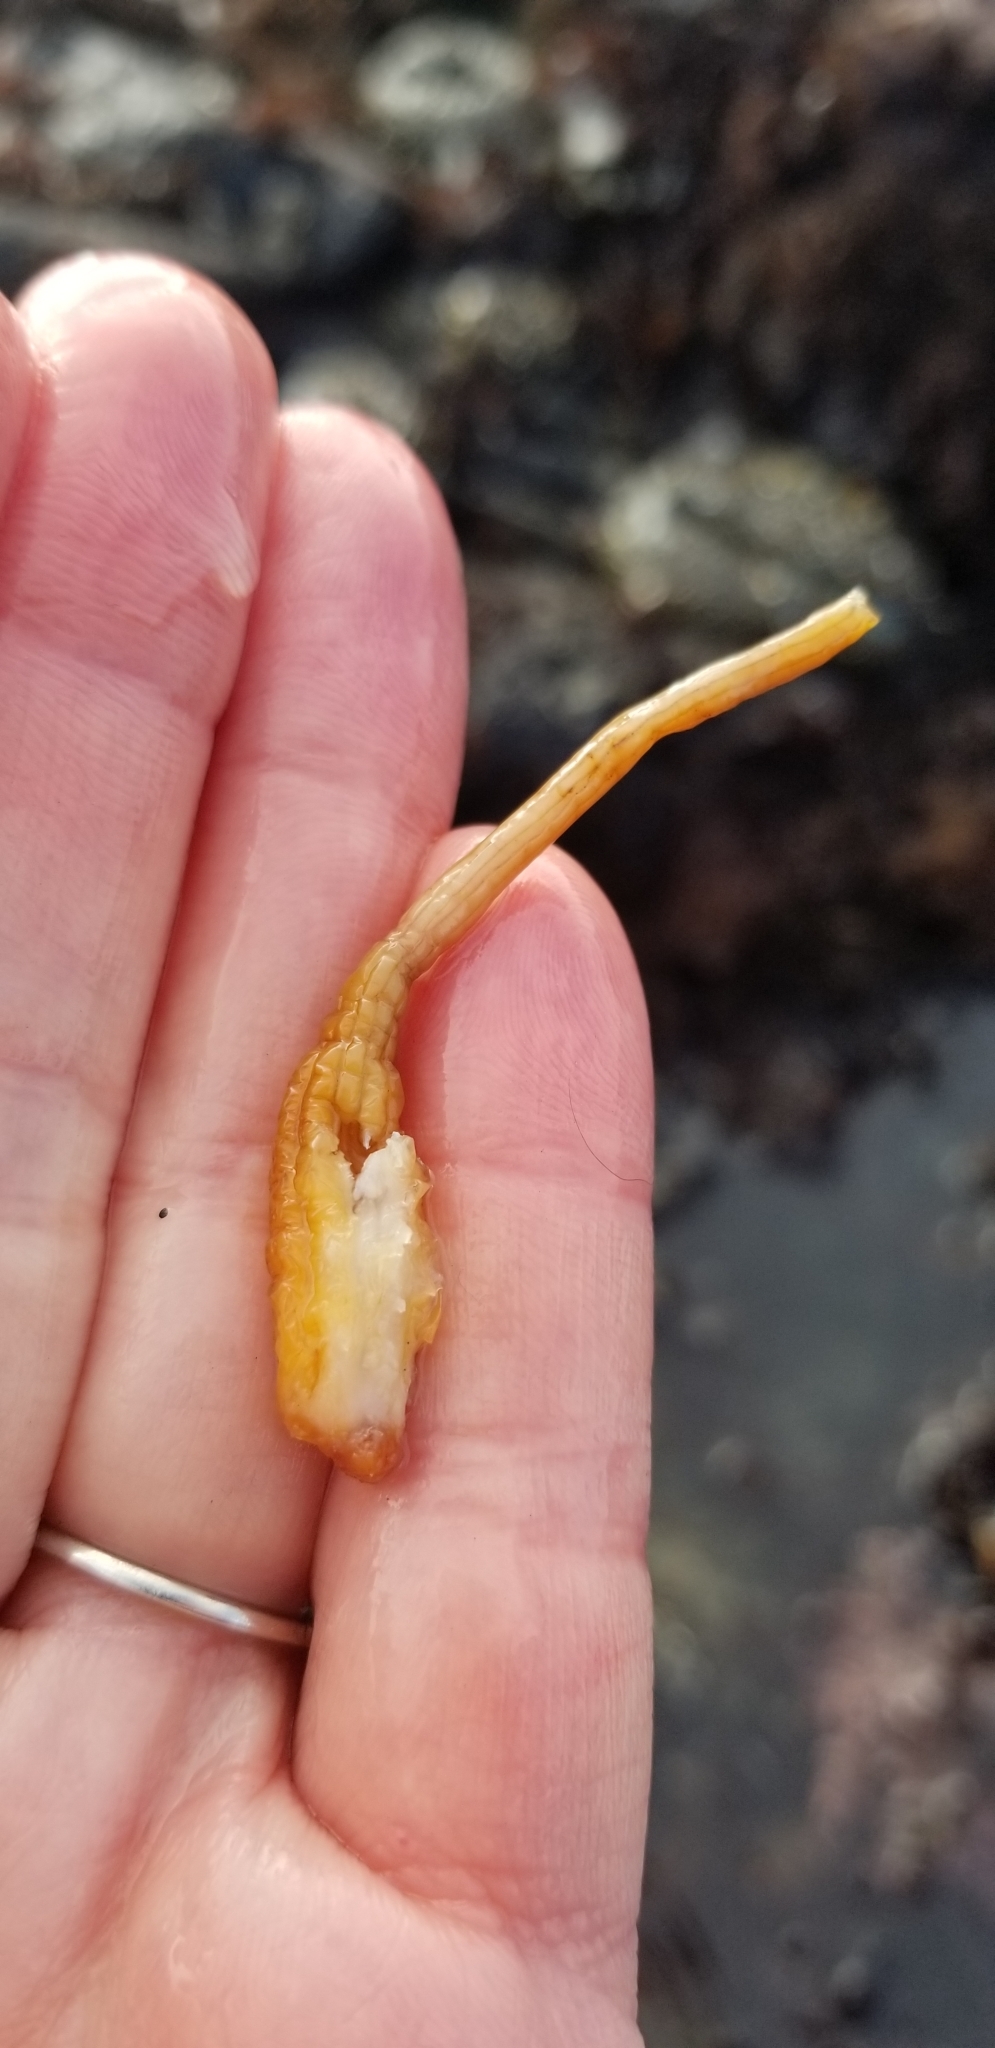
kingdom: Animalia
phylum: Chordata
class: Ascidiacea
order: Stolidobranchia
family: Styelidae
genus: Styela
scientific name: Styela montereyensis
